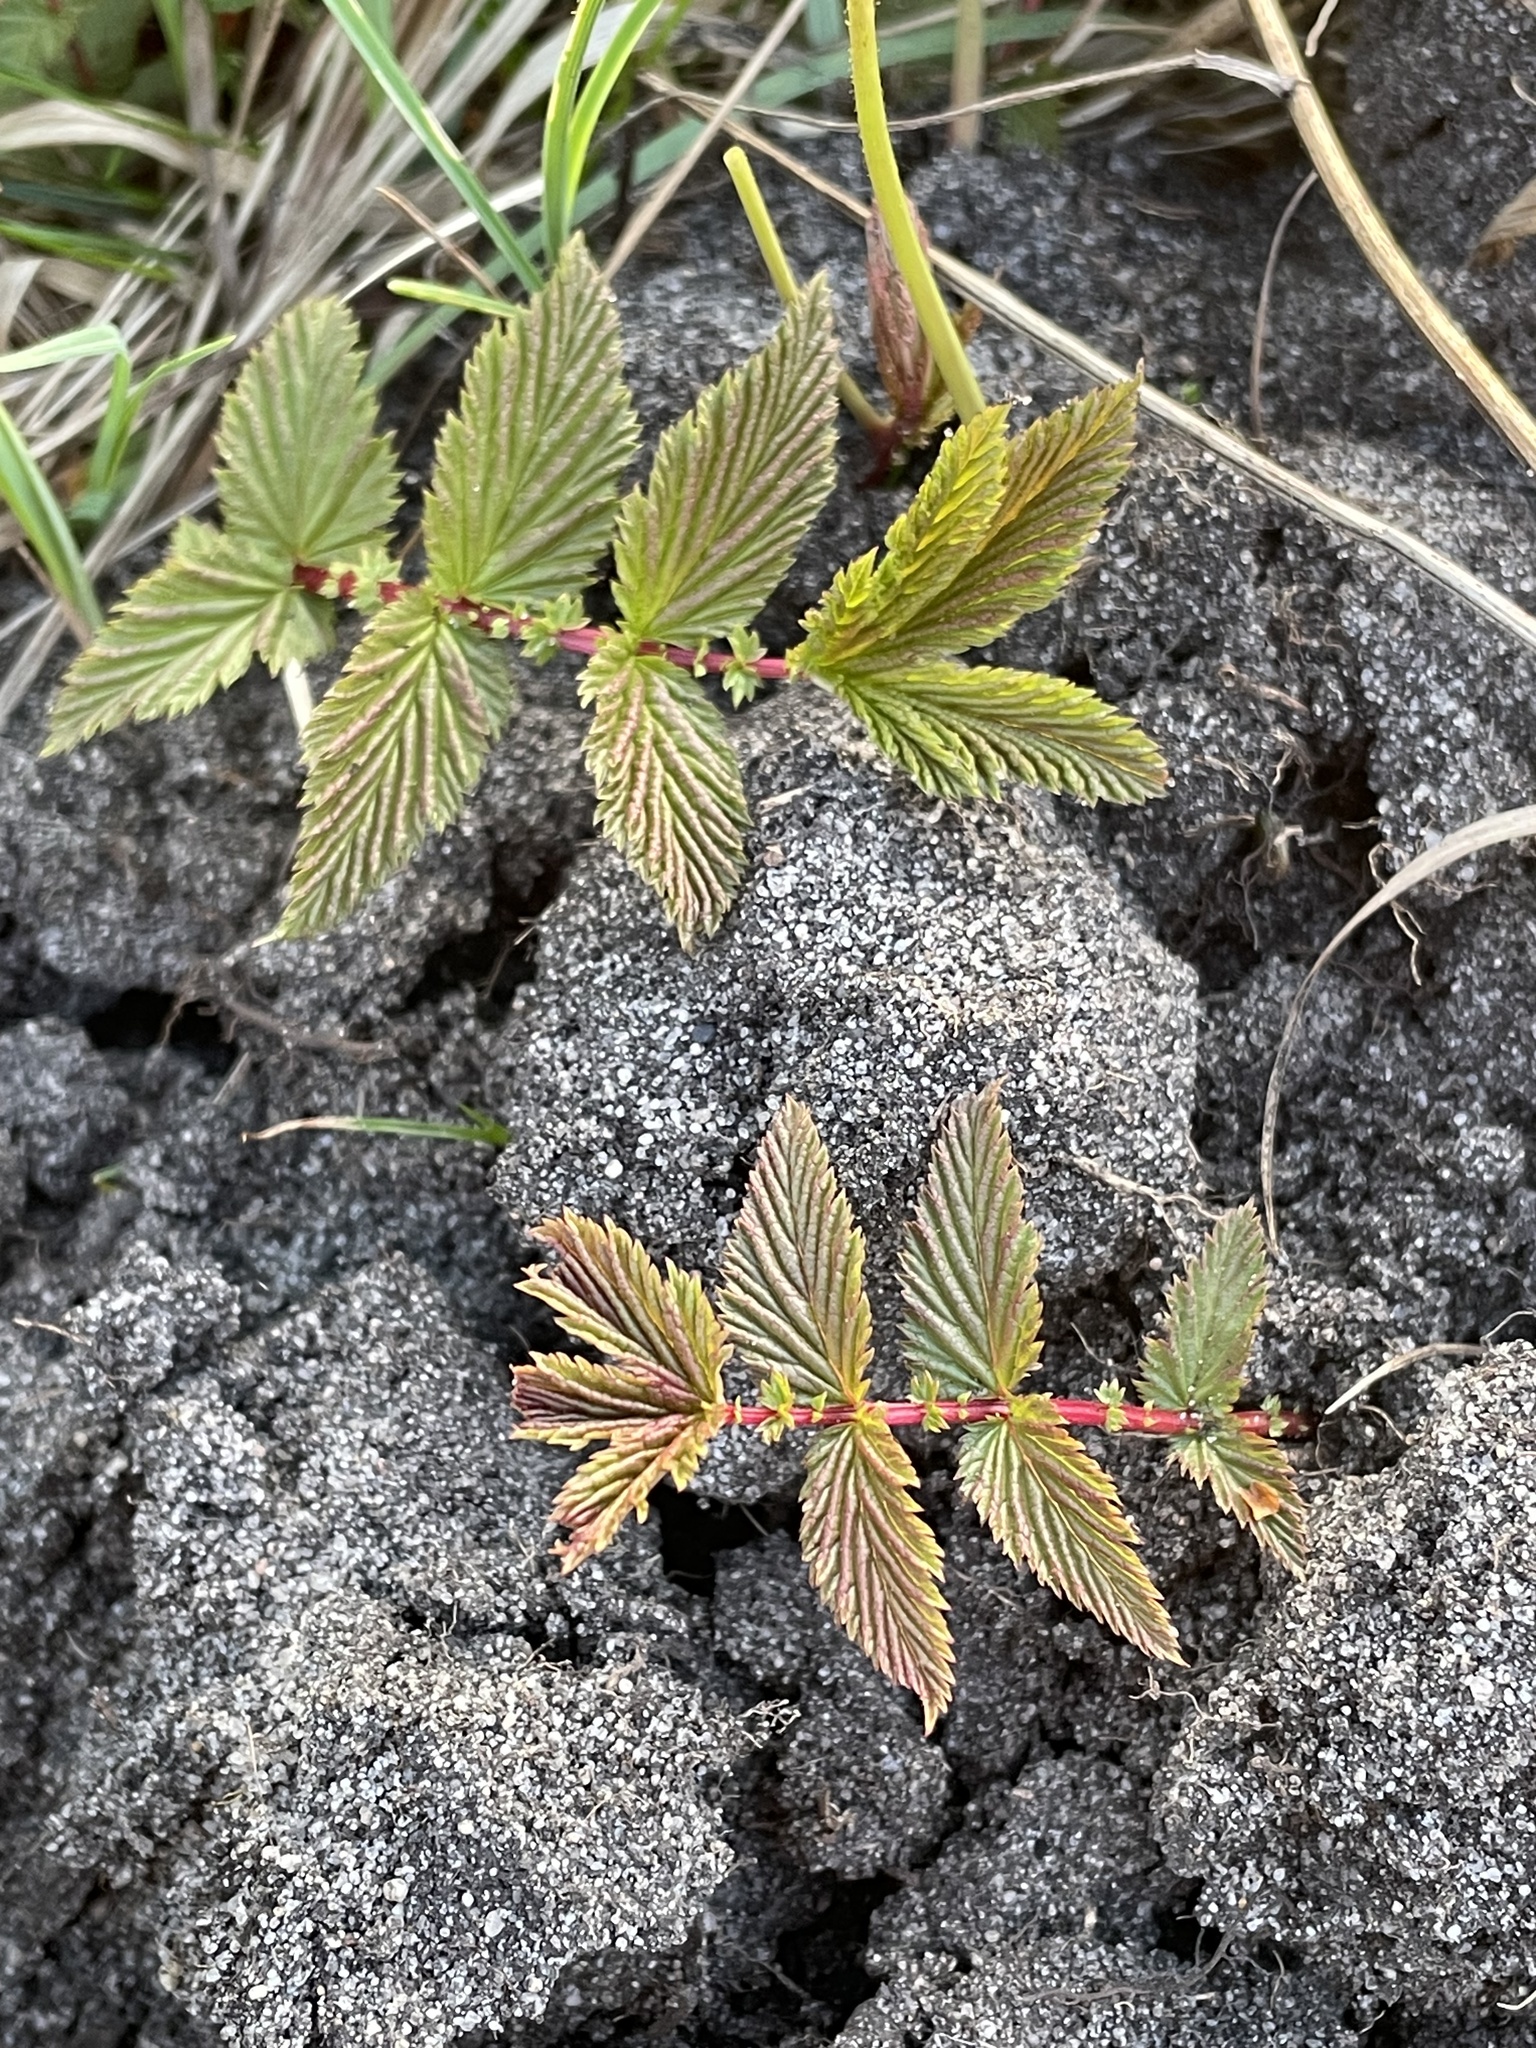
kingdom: Plantae
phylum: Tracheophyta
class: Magnoliopsida
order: Rosales
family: Rosaceae
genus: Filipendula
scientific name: Filipendula ulmaria
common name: Meadowsweet
